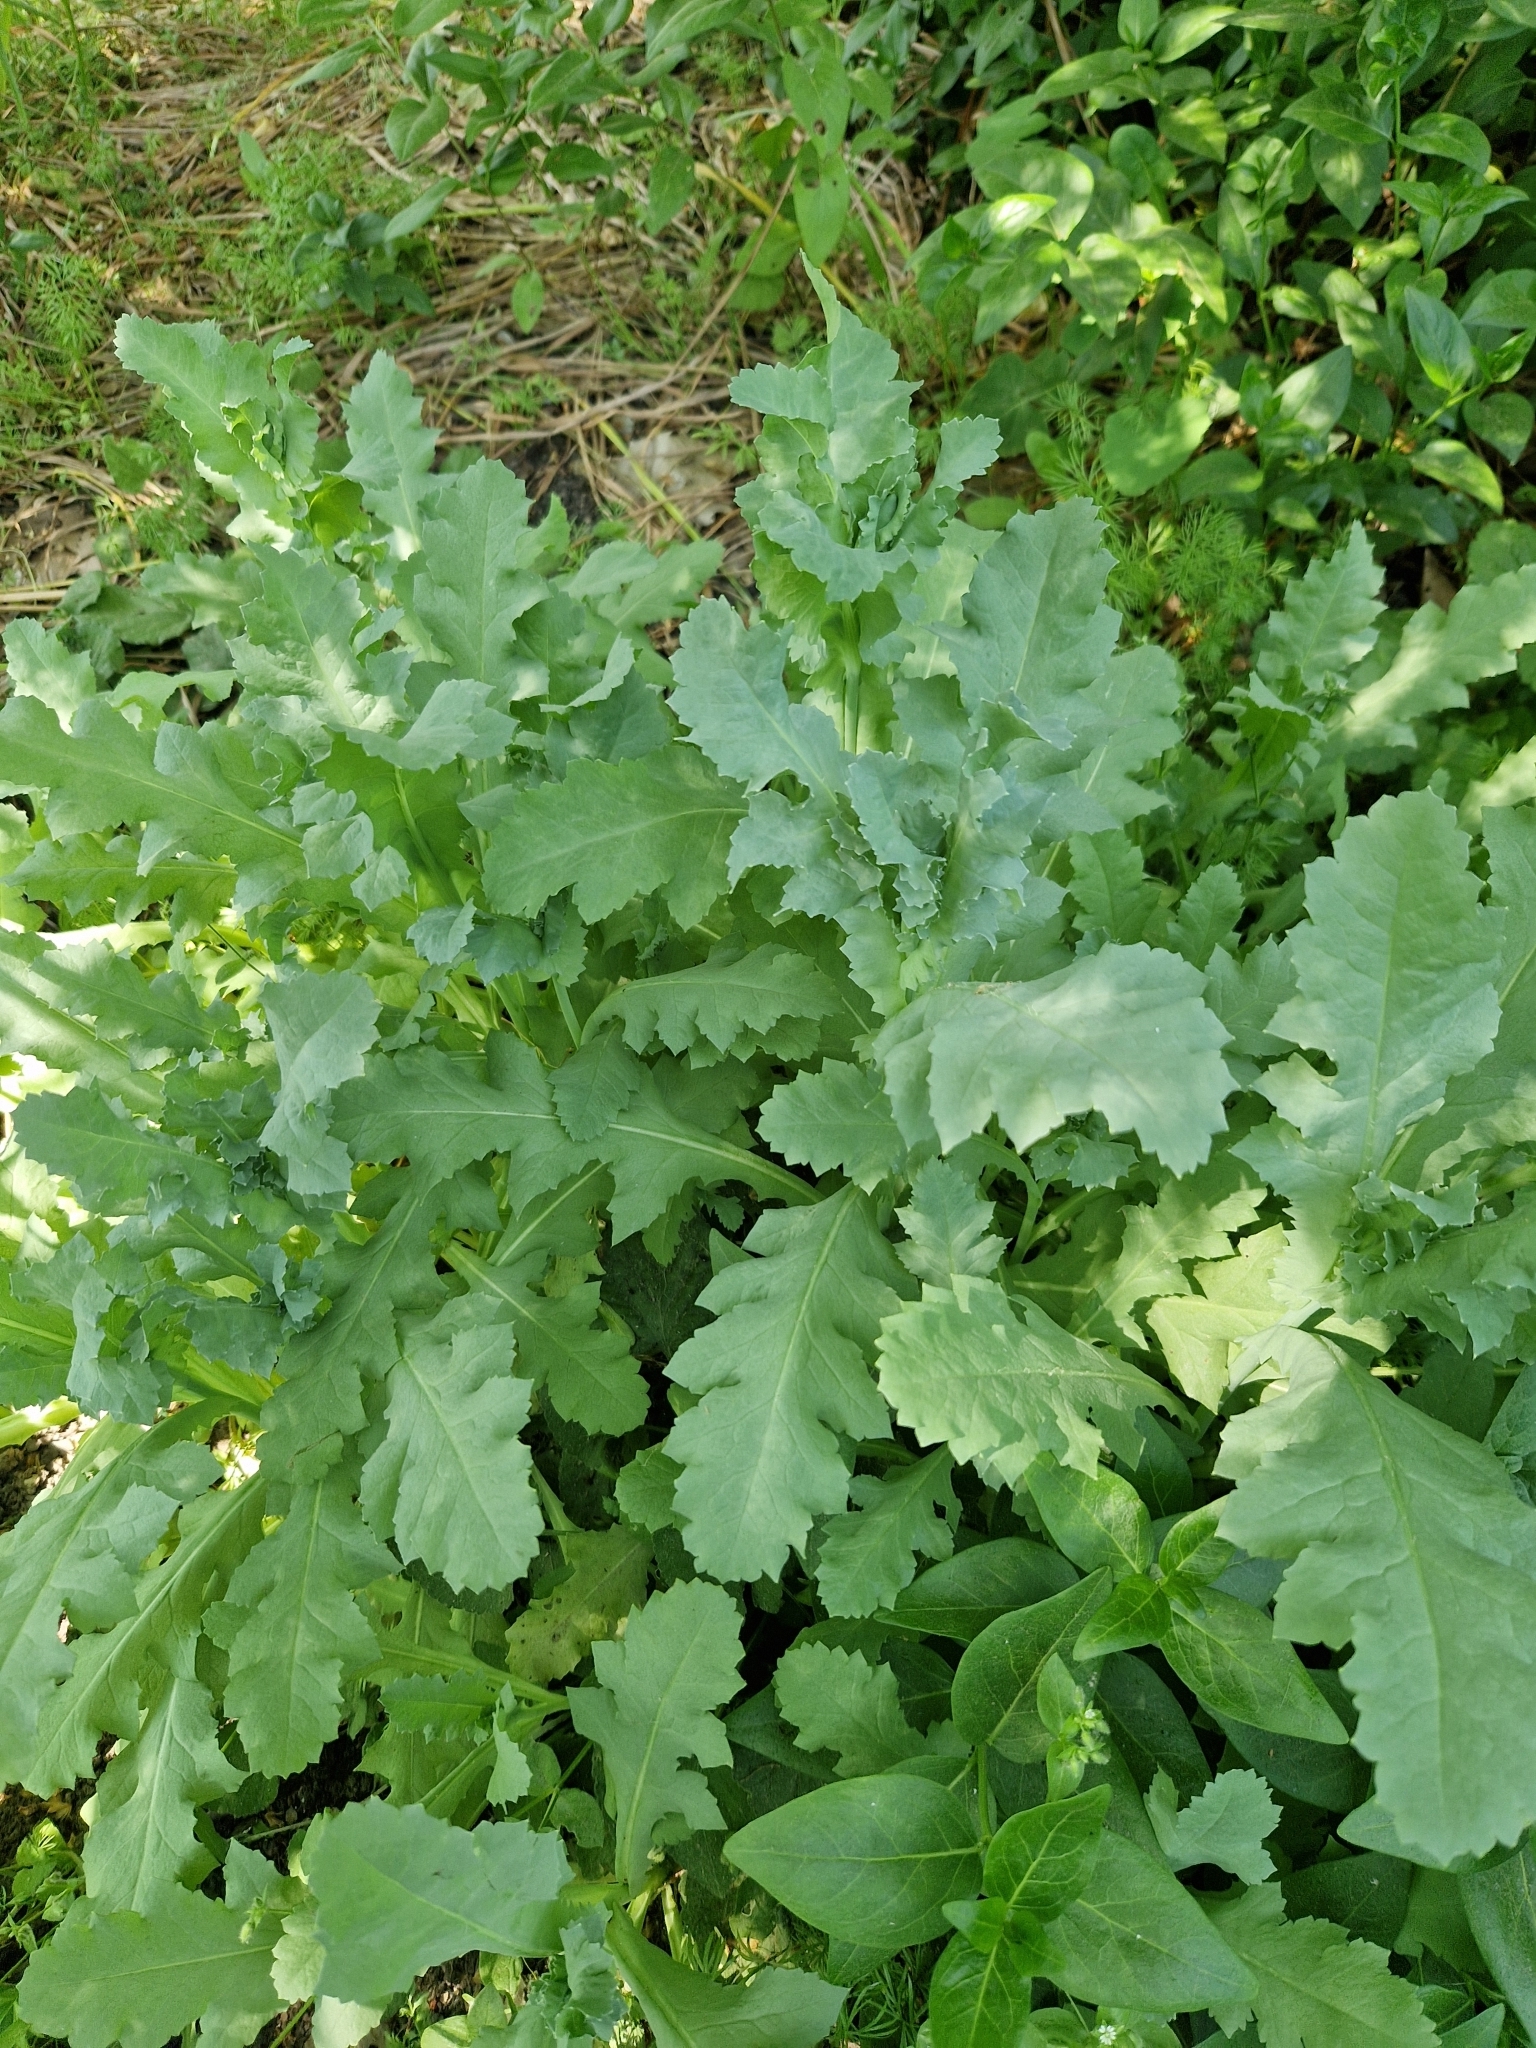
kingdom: Plantae
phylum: Tracheophyta
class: Magnoliopsida
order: Ranunculales
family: Papaveraceae
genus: Papaver
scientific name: Papaver somniferum
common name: Opium poppy
